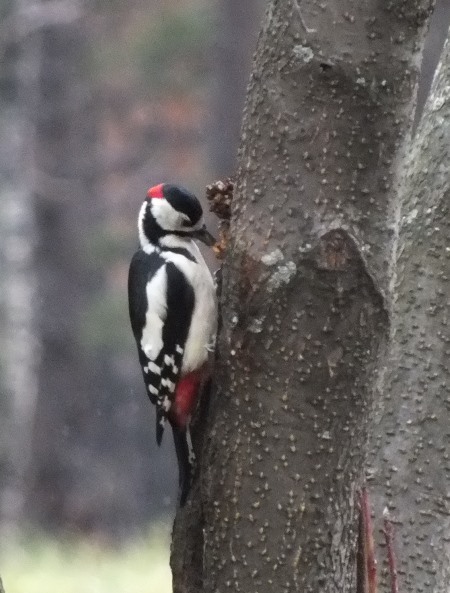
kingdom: Animalia
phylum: Chordata
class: Aves
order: Piciformes
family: Picidae
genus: Dendrocopos
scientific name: Dendrocopos major
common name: Great spotted woodpecker
